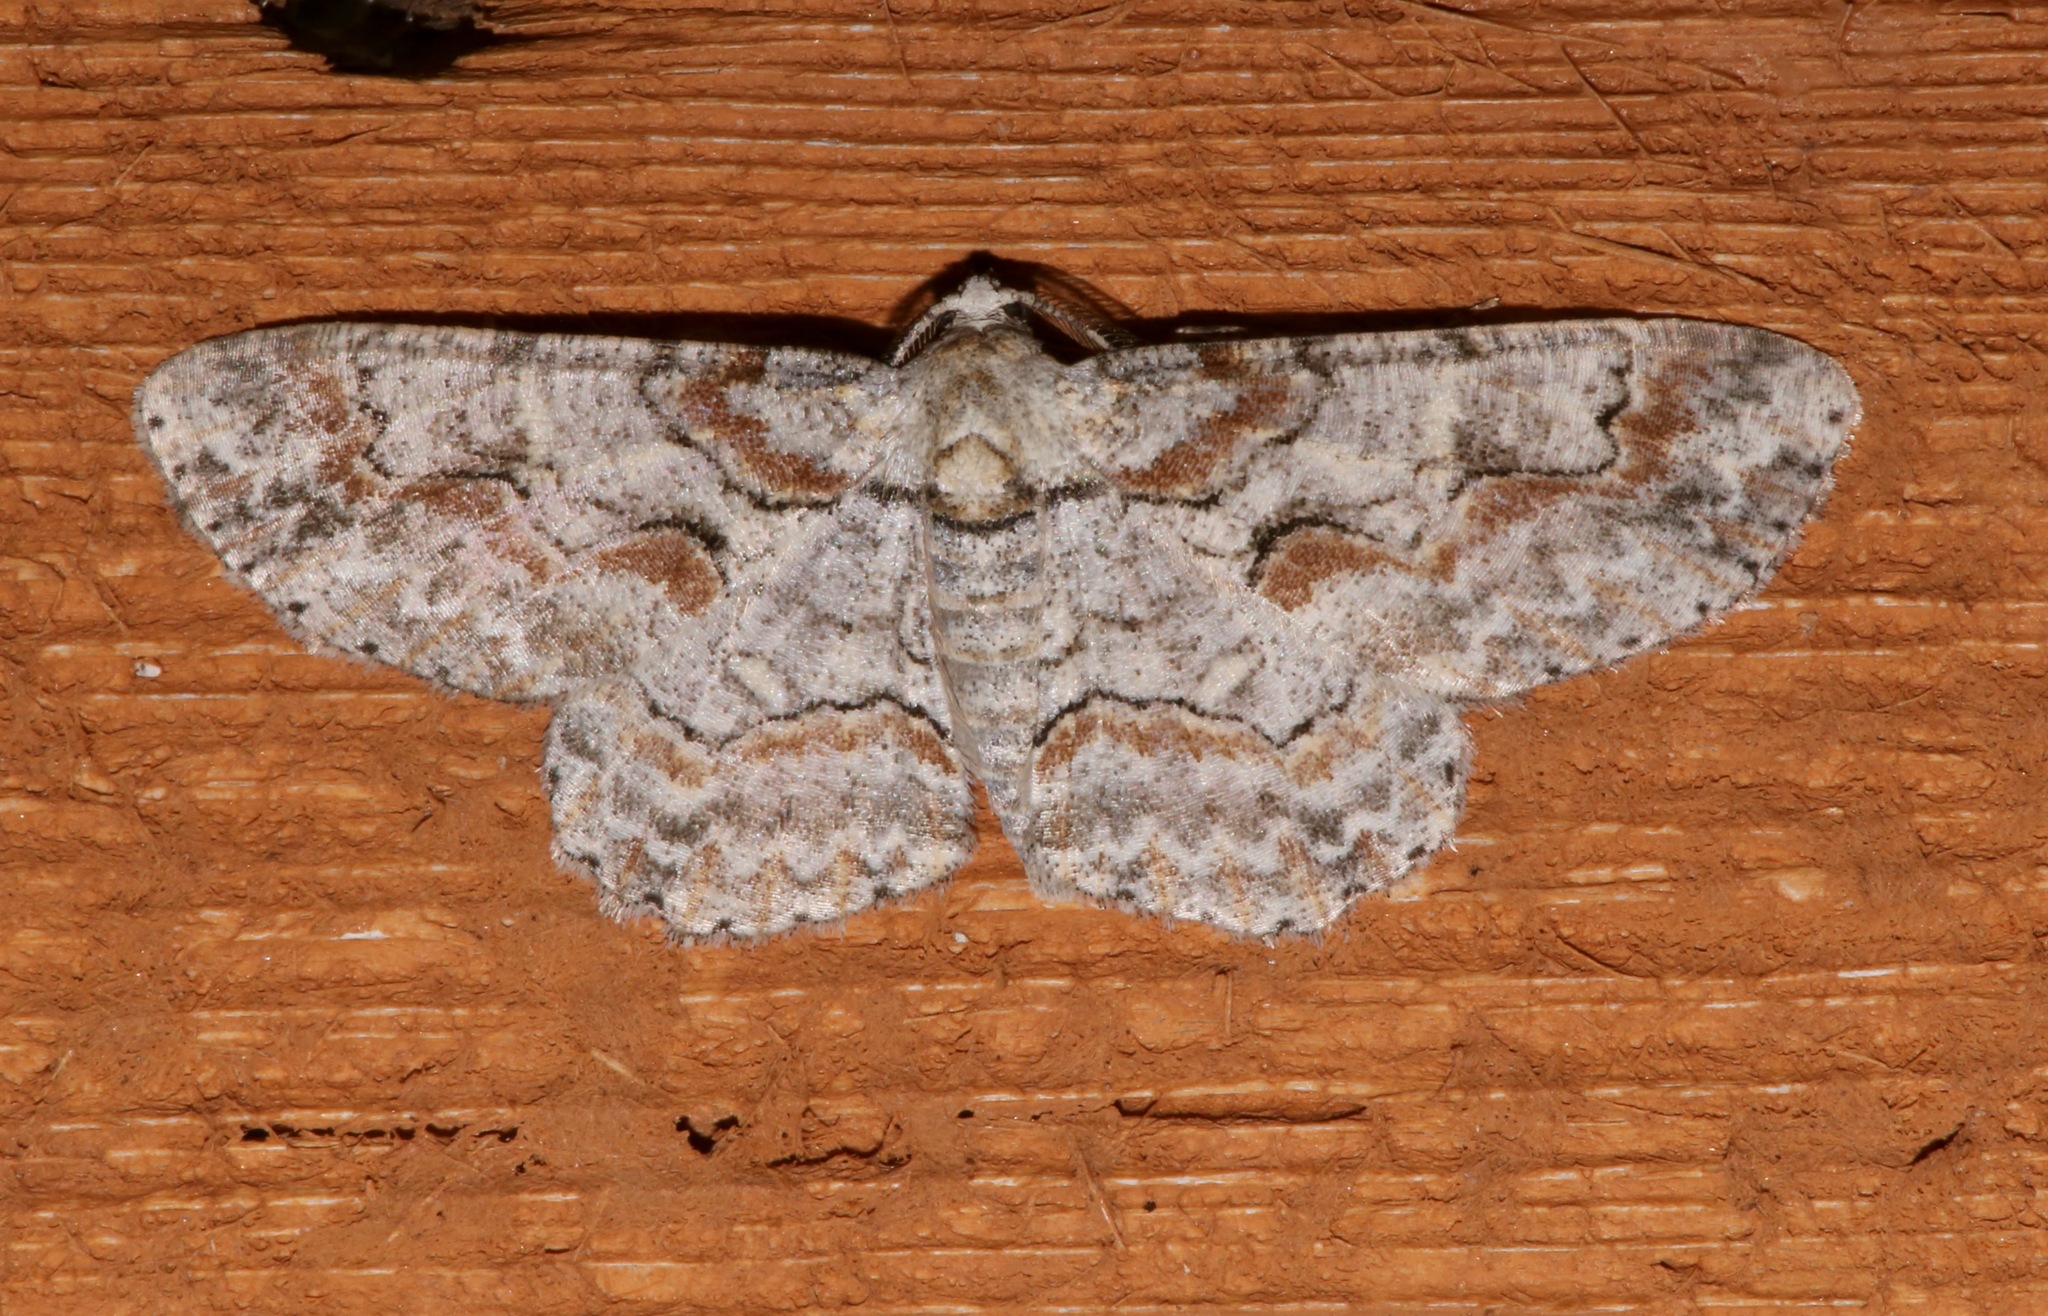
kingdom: Animalia
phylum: Arthropoda
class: Insecta
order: Lepidoptera
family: Geometridae
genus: Iridopsis
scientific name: Iridopsis defectaria
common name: Brown-shaded gray
